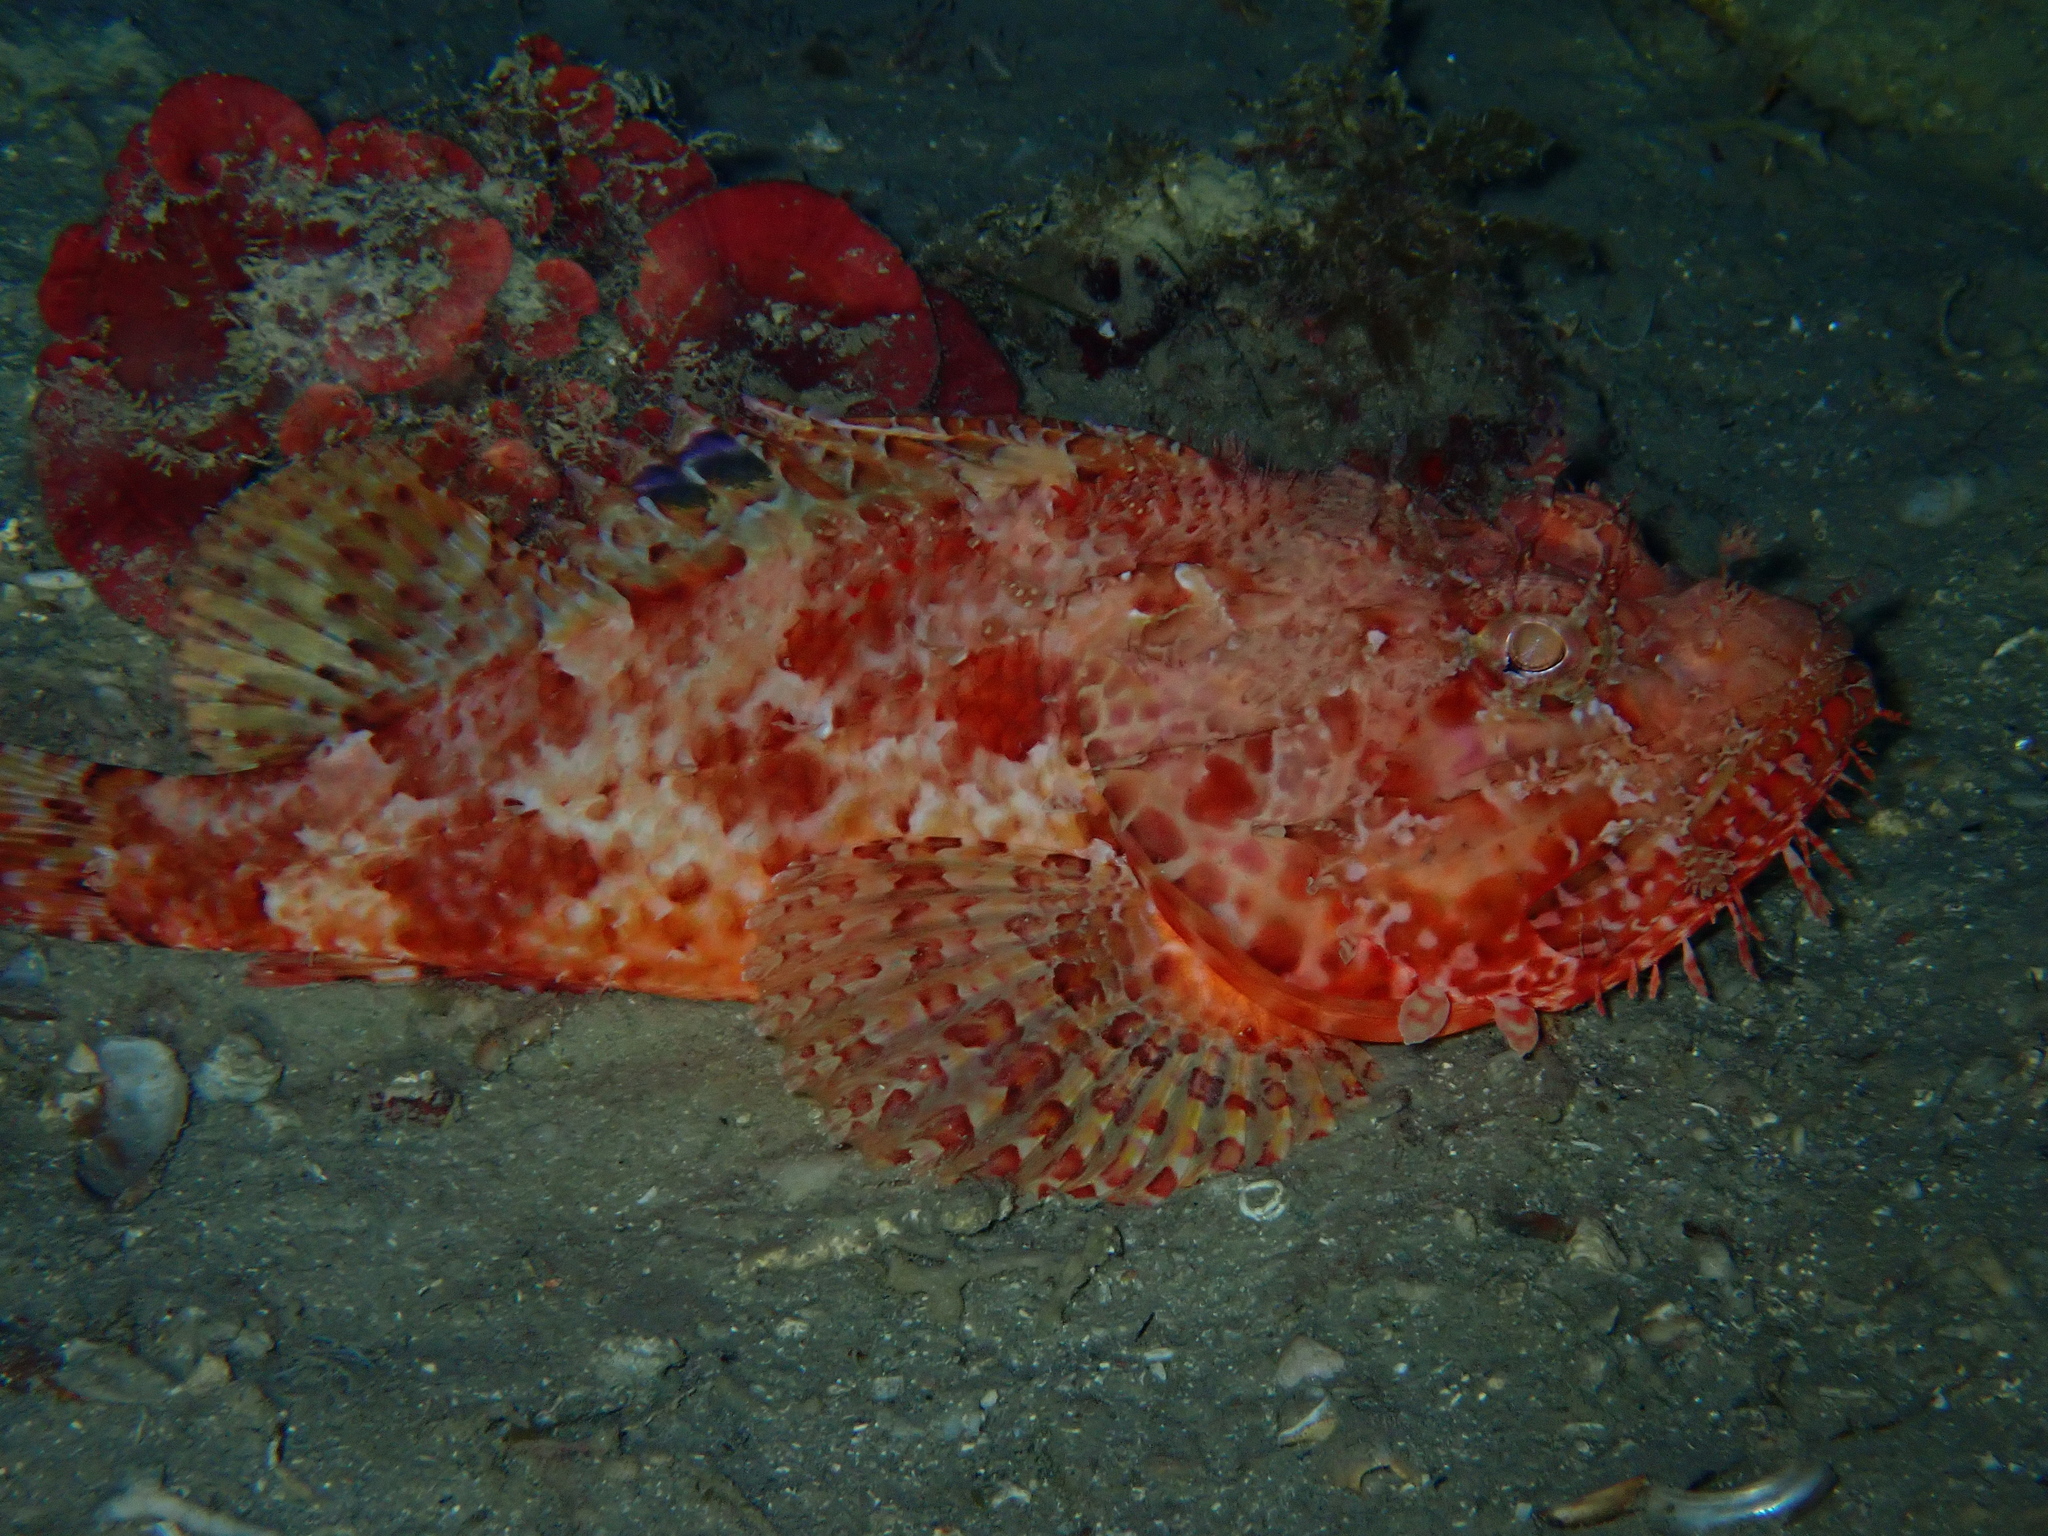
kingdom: Animalia
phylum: Chordata
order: Scorpaeniformes
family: Scorpaenidae
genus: Scorpaena
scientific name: Scorpaena scrofa
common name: Red scorpionfish
